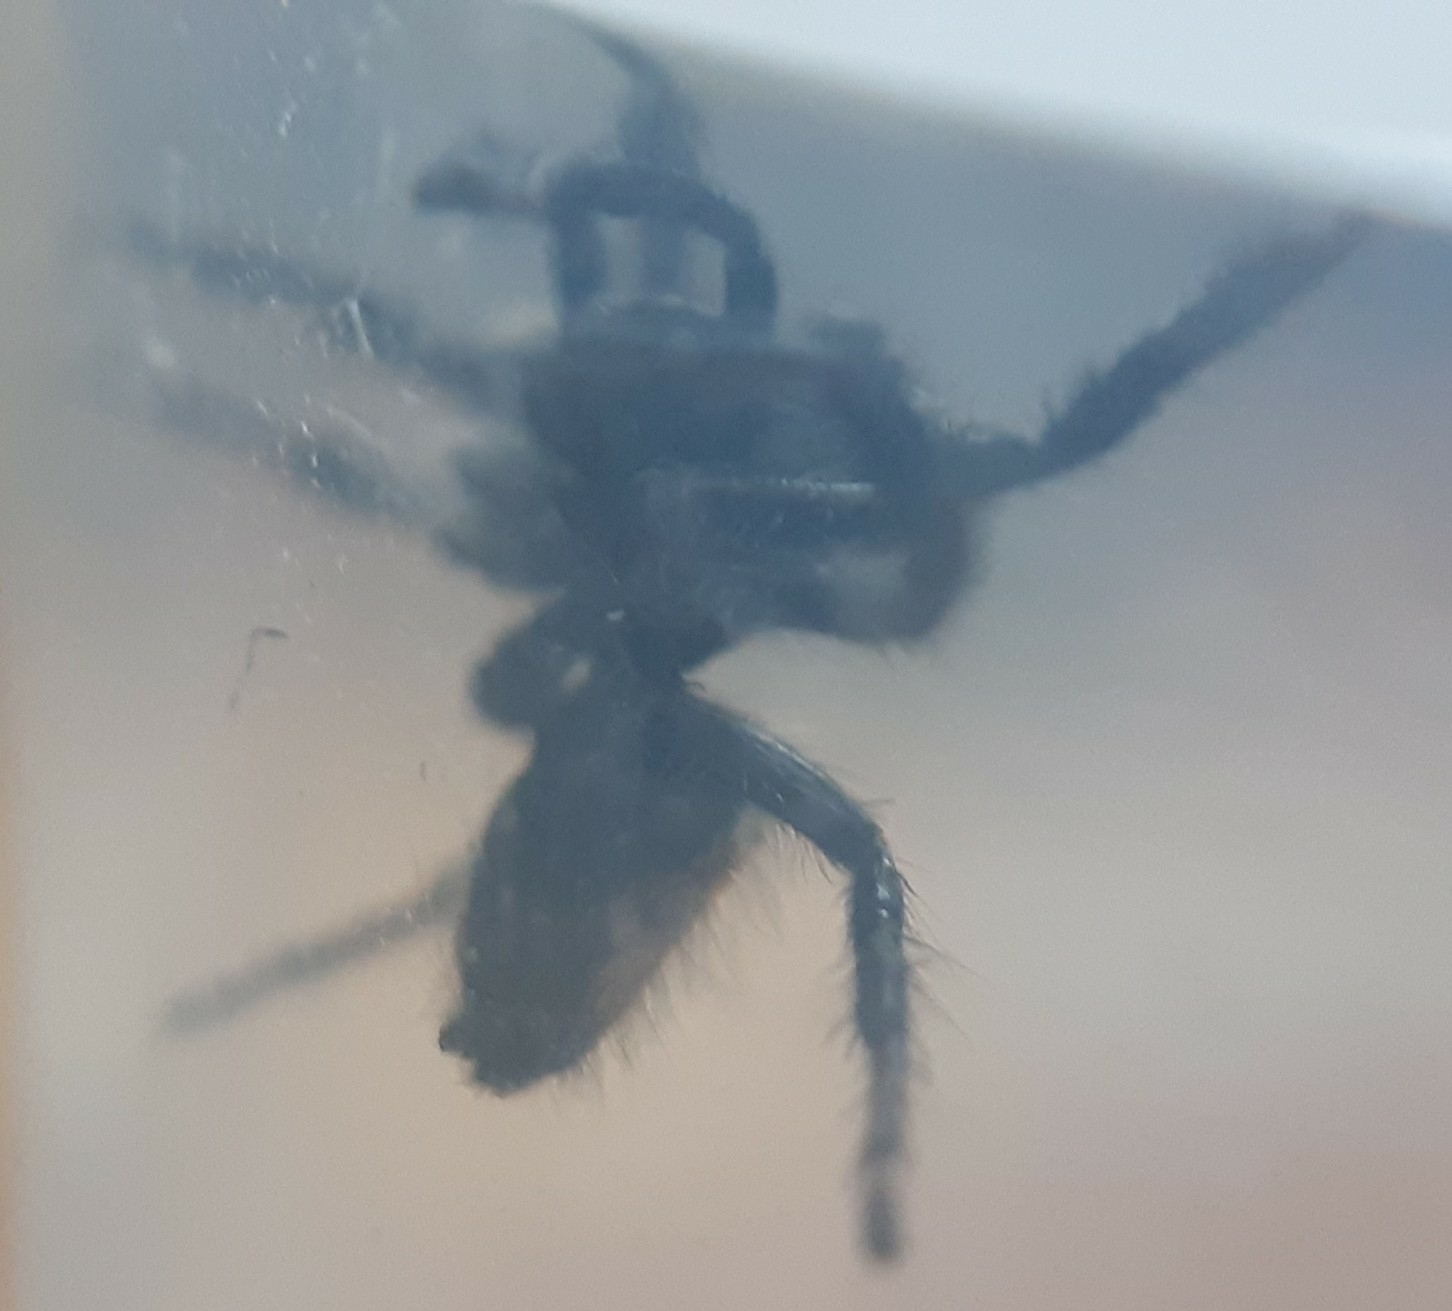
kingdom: Animalia
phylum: Arthropoda
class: Arachnida
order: Araneae
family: Salticidae
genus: Carrhotus
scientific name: Carrhotus xanthogramma
